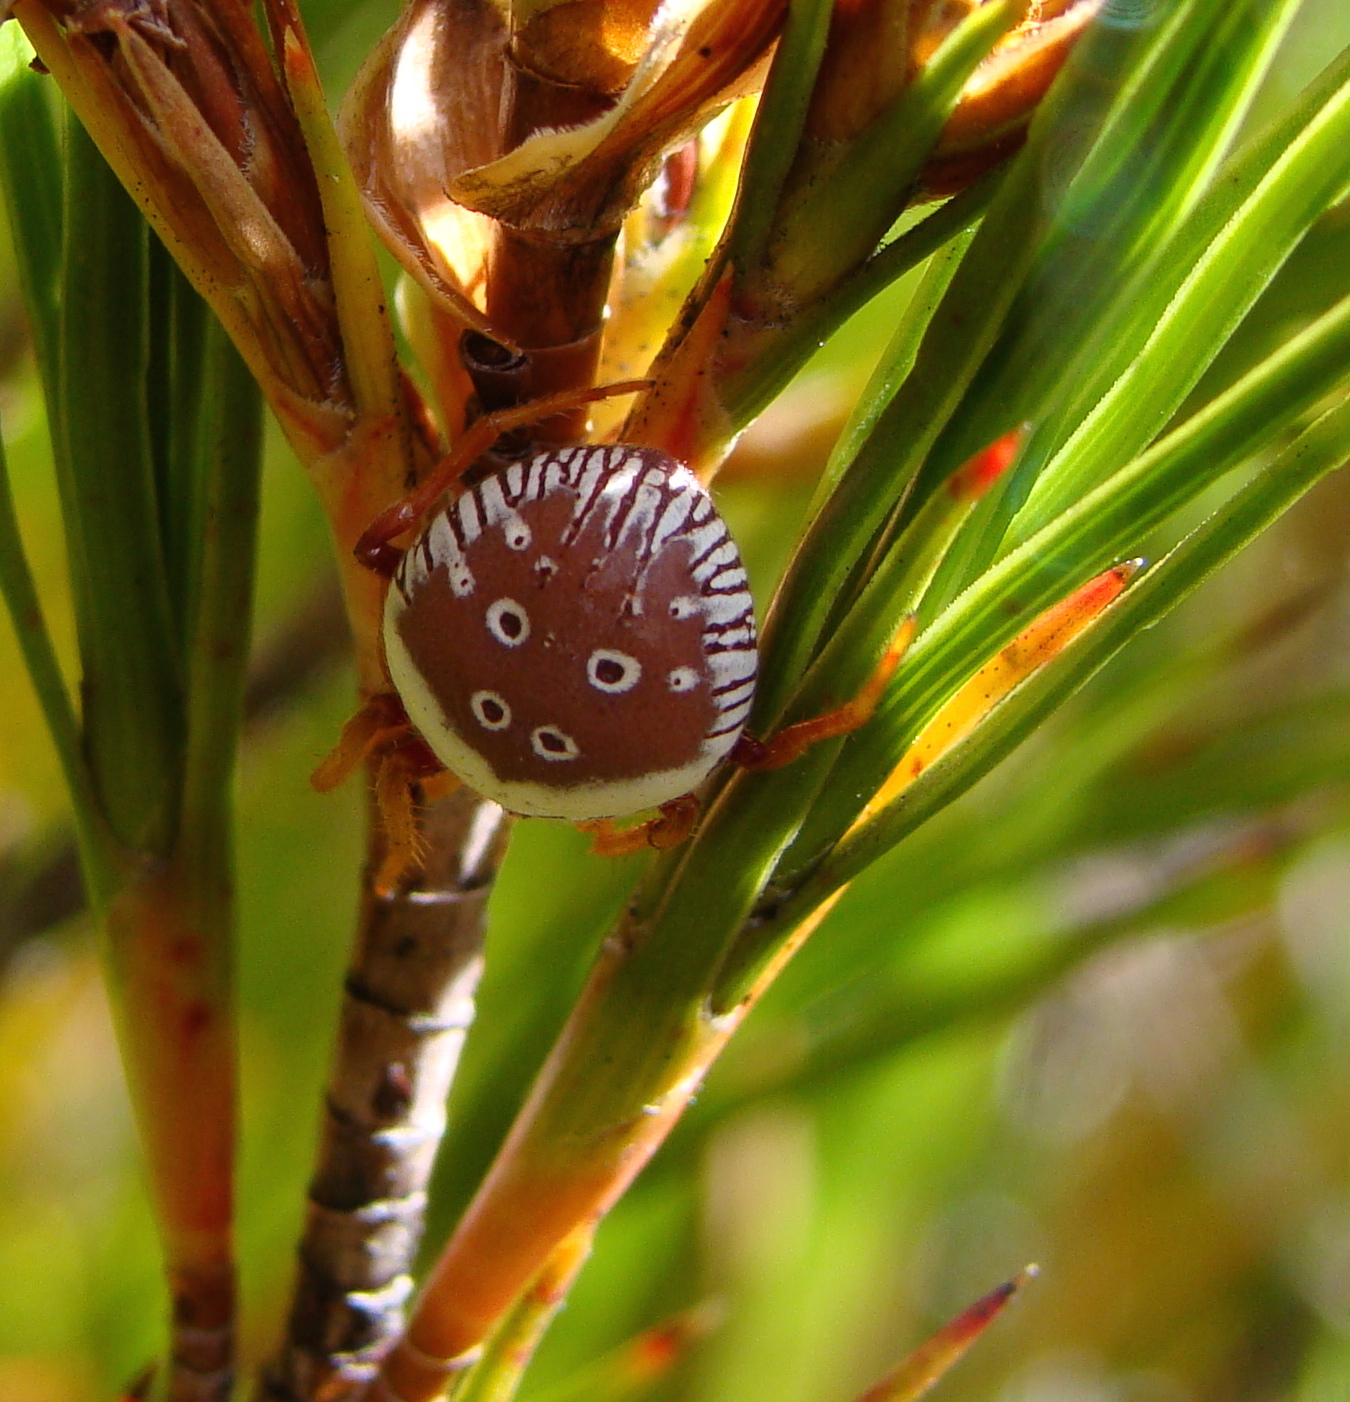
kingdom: Animalia
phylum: Arthropoda
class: Arachnida
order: Araneae
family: Araneidae
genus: Zealaranea
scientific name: Zealaranea prina
